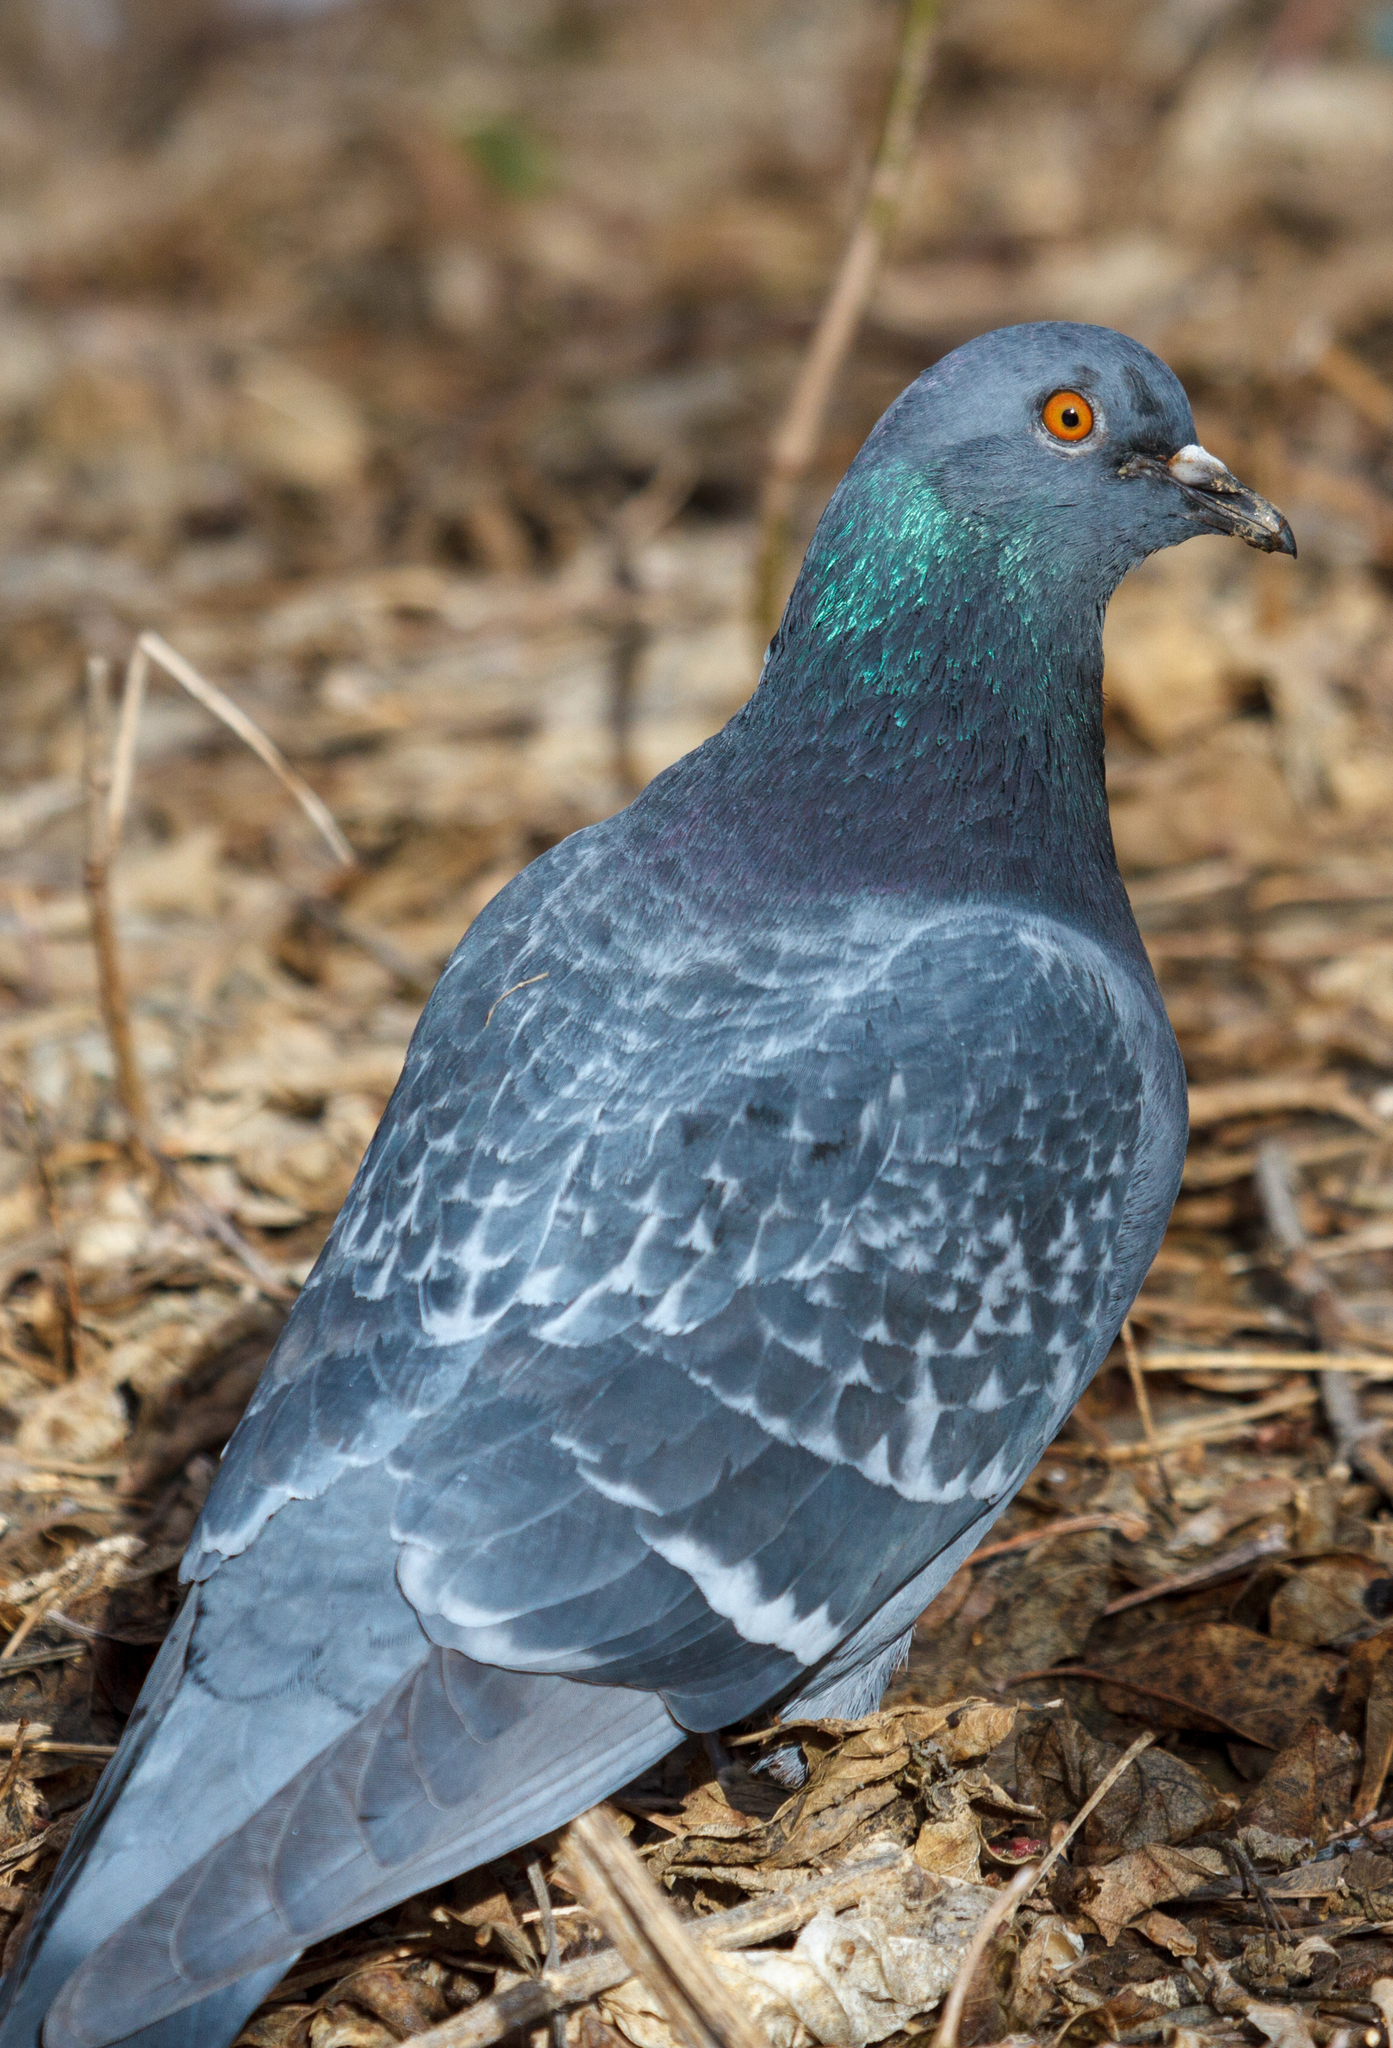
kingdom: Animalia
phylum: Chordata
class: Aves
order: Columbiformes
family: Columbidae
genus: Columba
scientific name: Columba livia
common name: Rock pigeon
